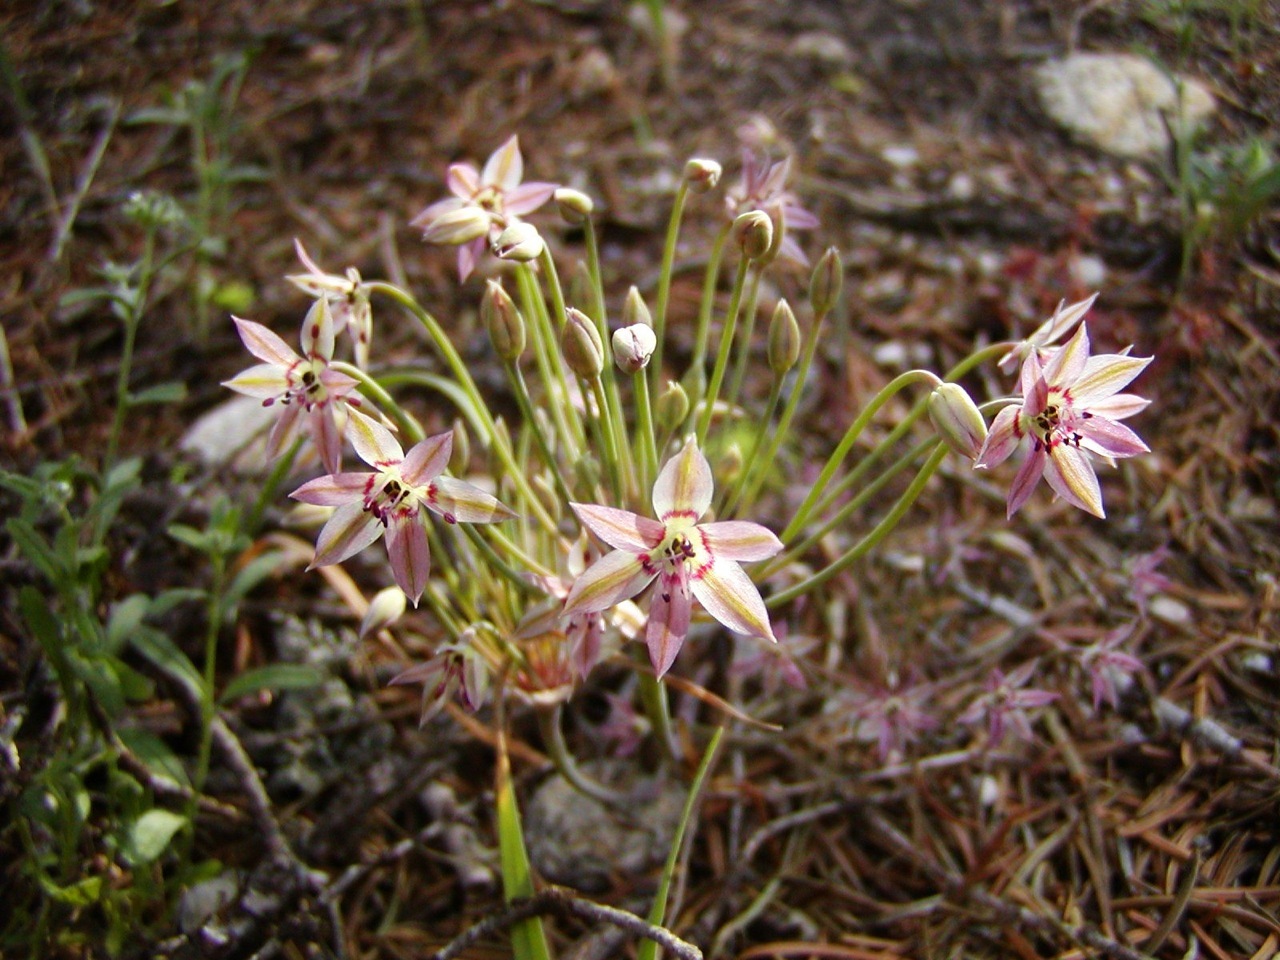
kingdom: Plantae
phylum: Tracheophyta
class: Liliopsida
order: Asparagales
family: Amaryllidaceae
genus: Allium
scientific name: Allium campanulatum
